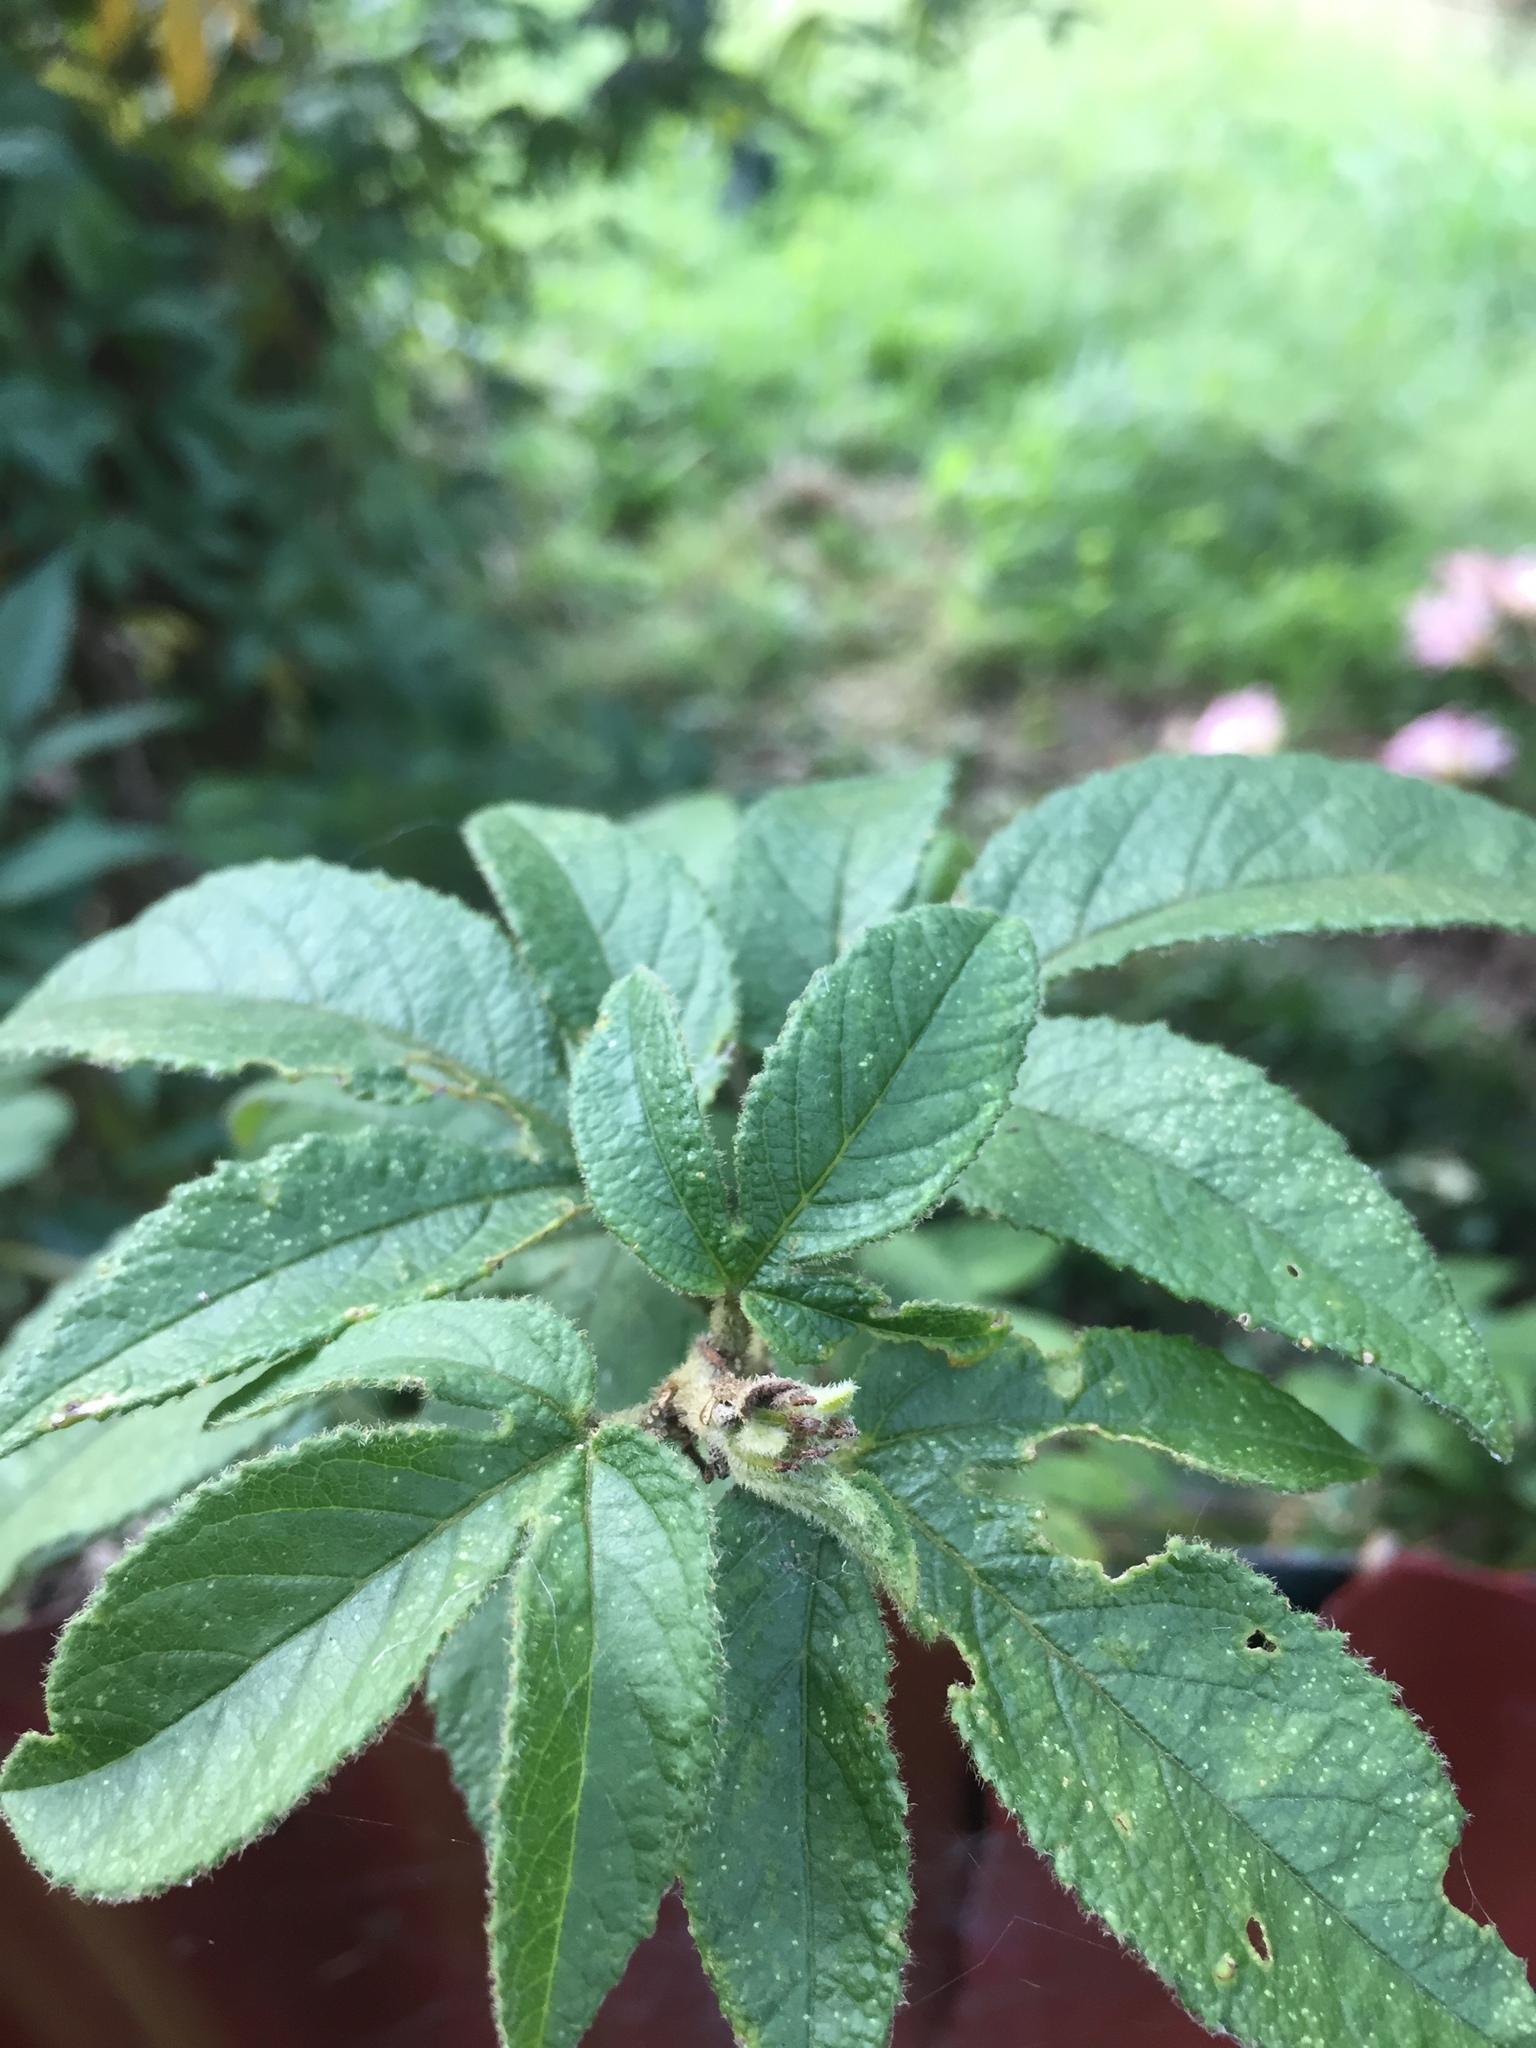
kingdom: Plantae
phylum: Tracheophyta
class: Magnoliopsida
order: Malpighiales
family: Passifloraceae
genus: Passiflora
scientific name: Passiflora tripartita
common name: Banana poka
